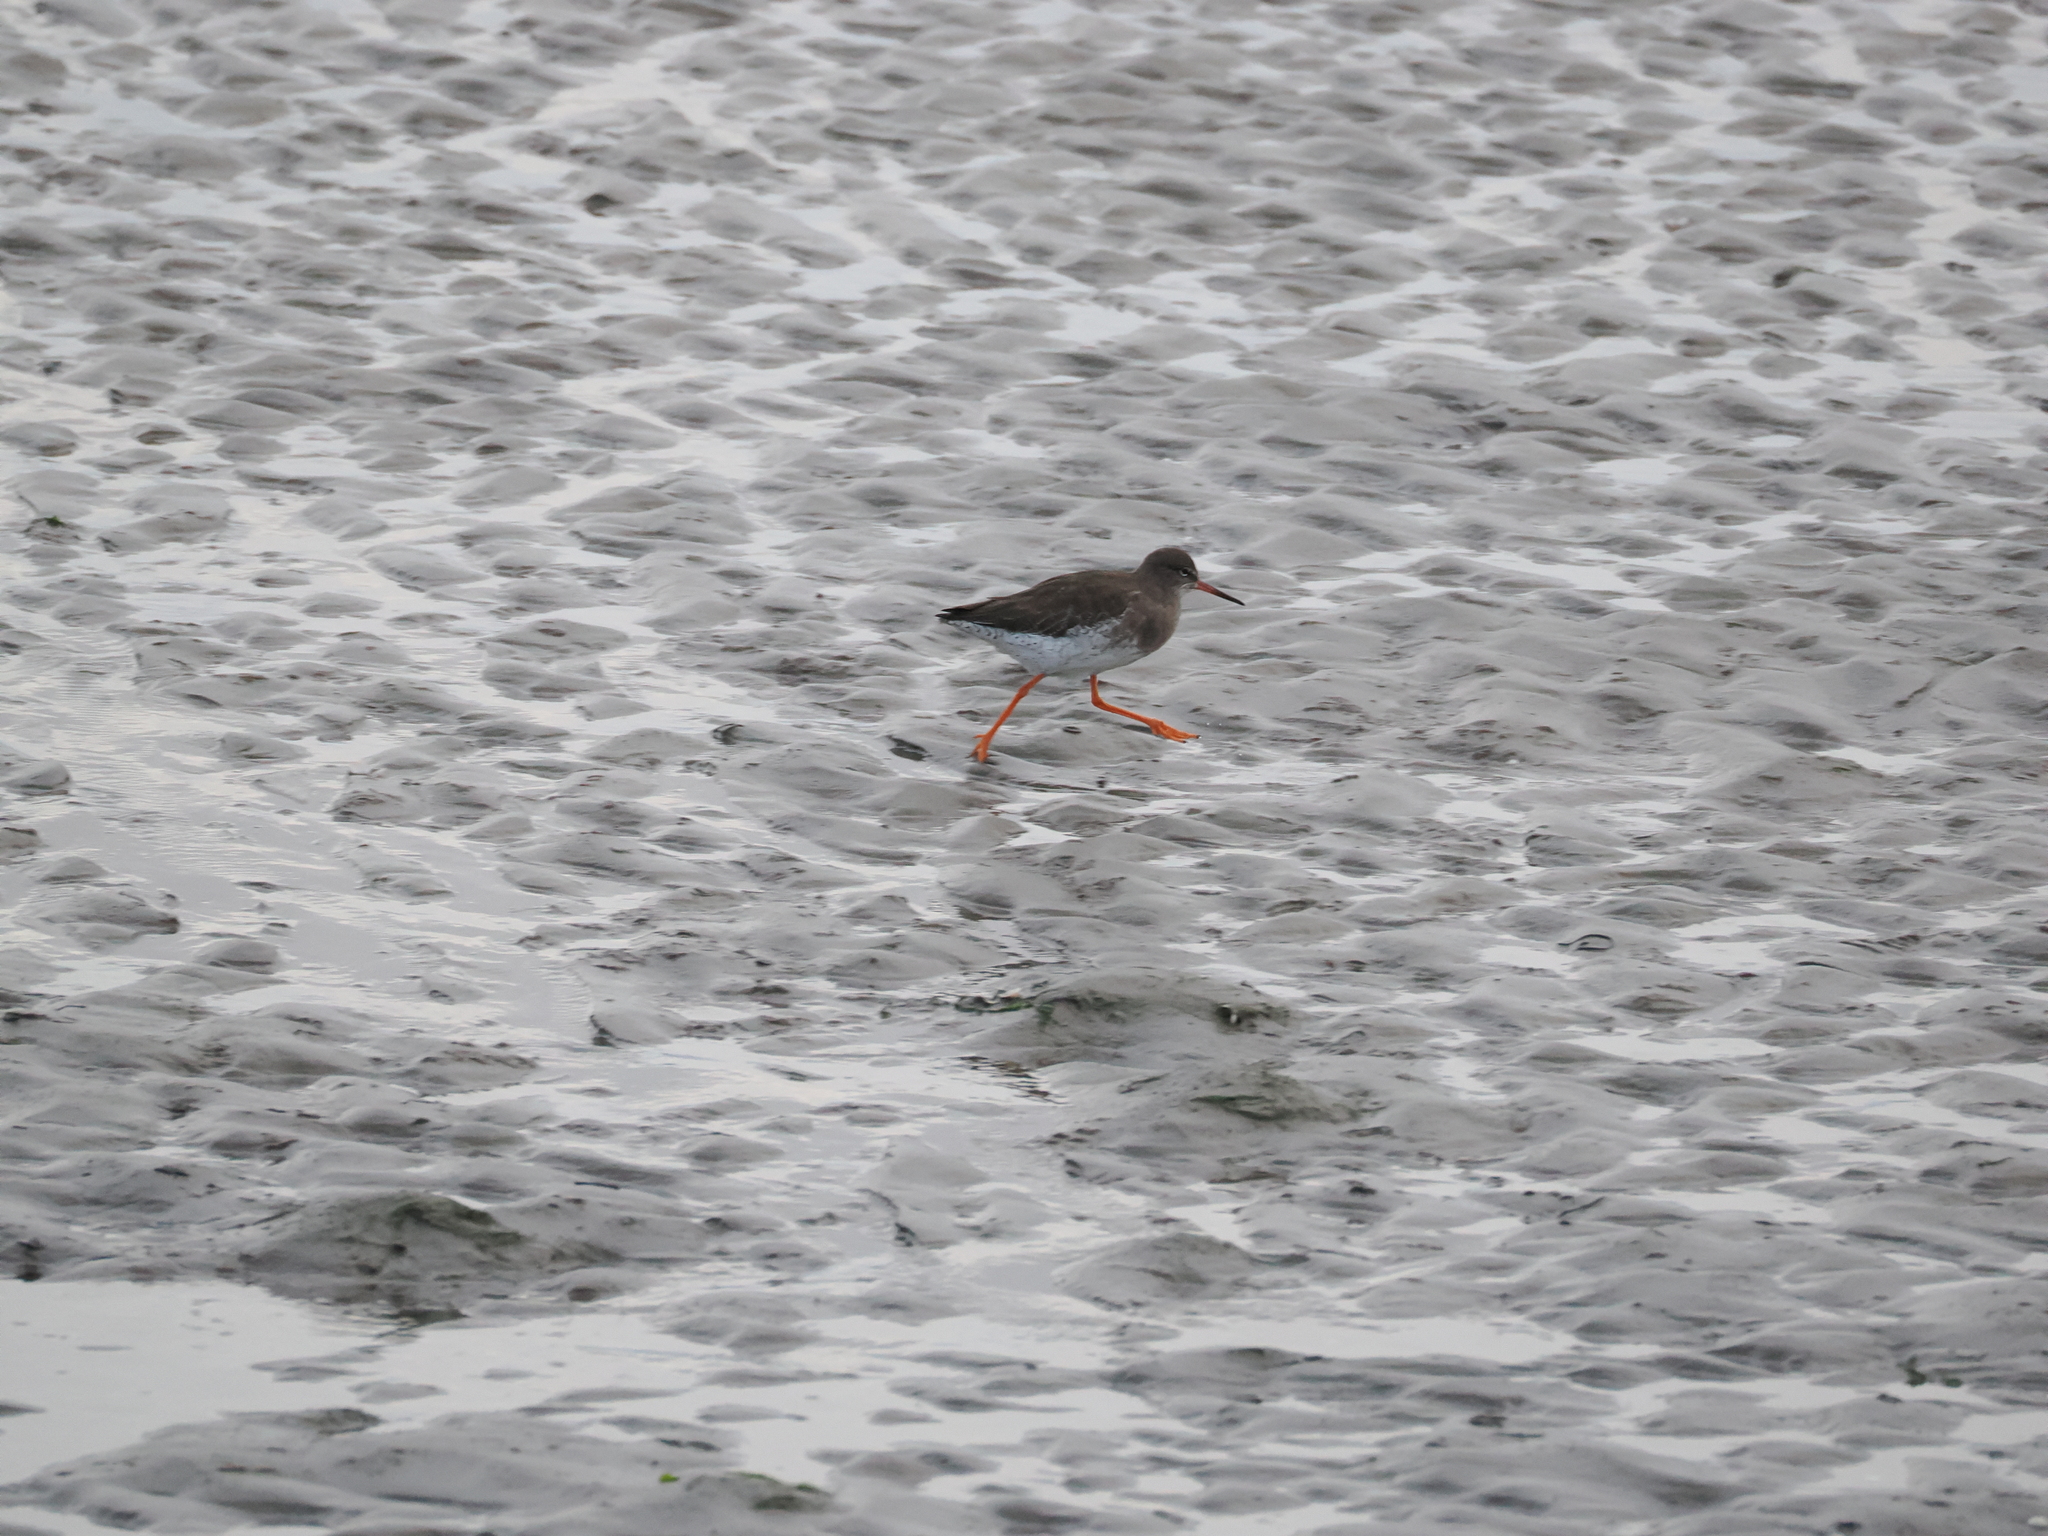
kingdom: Animalia
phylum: Chordata
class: Aves
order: Charadriiformes
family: Scolopacidae
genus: Tringa
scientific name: Tringa totanus
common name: Common redshank
